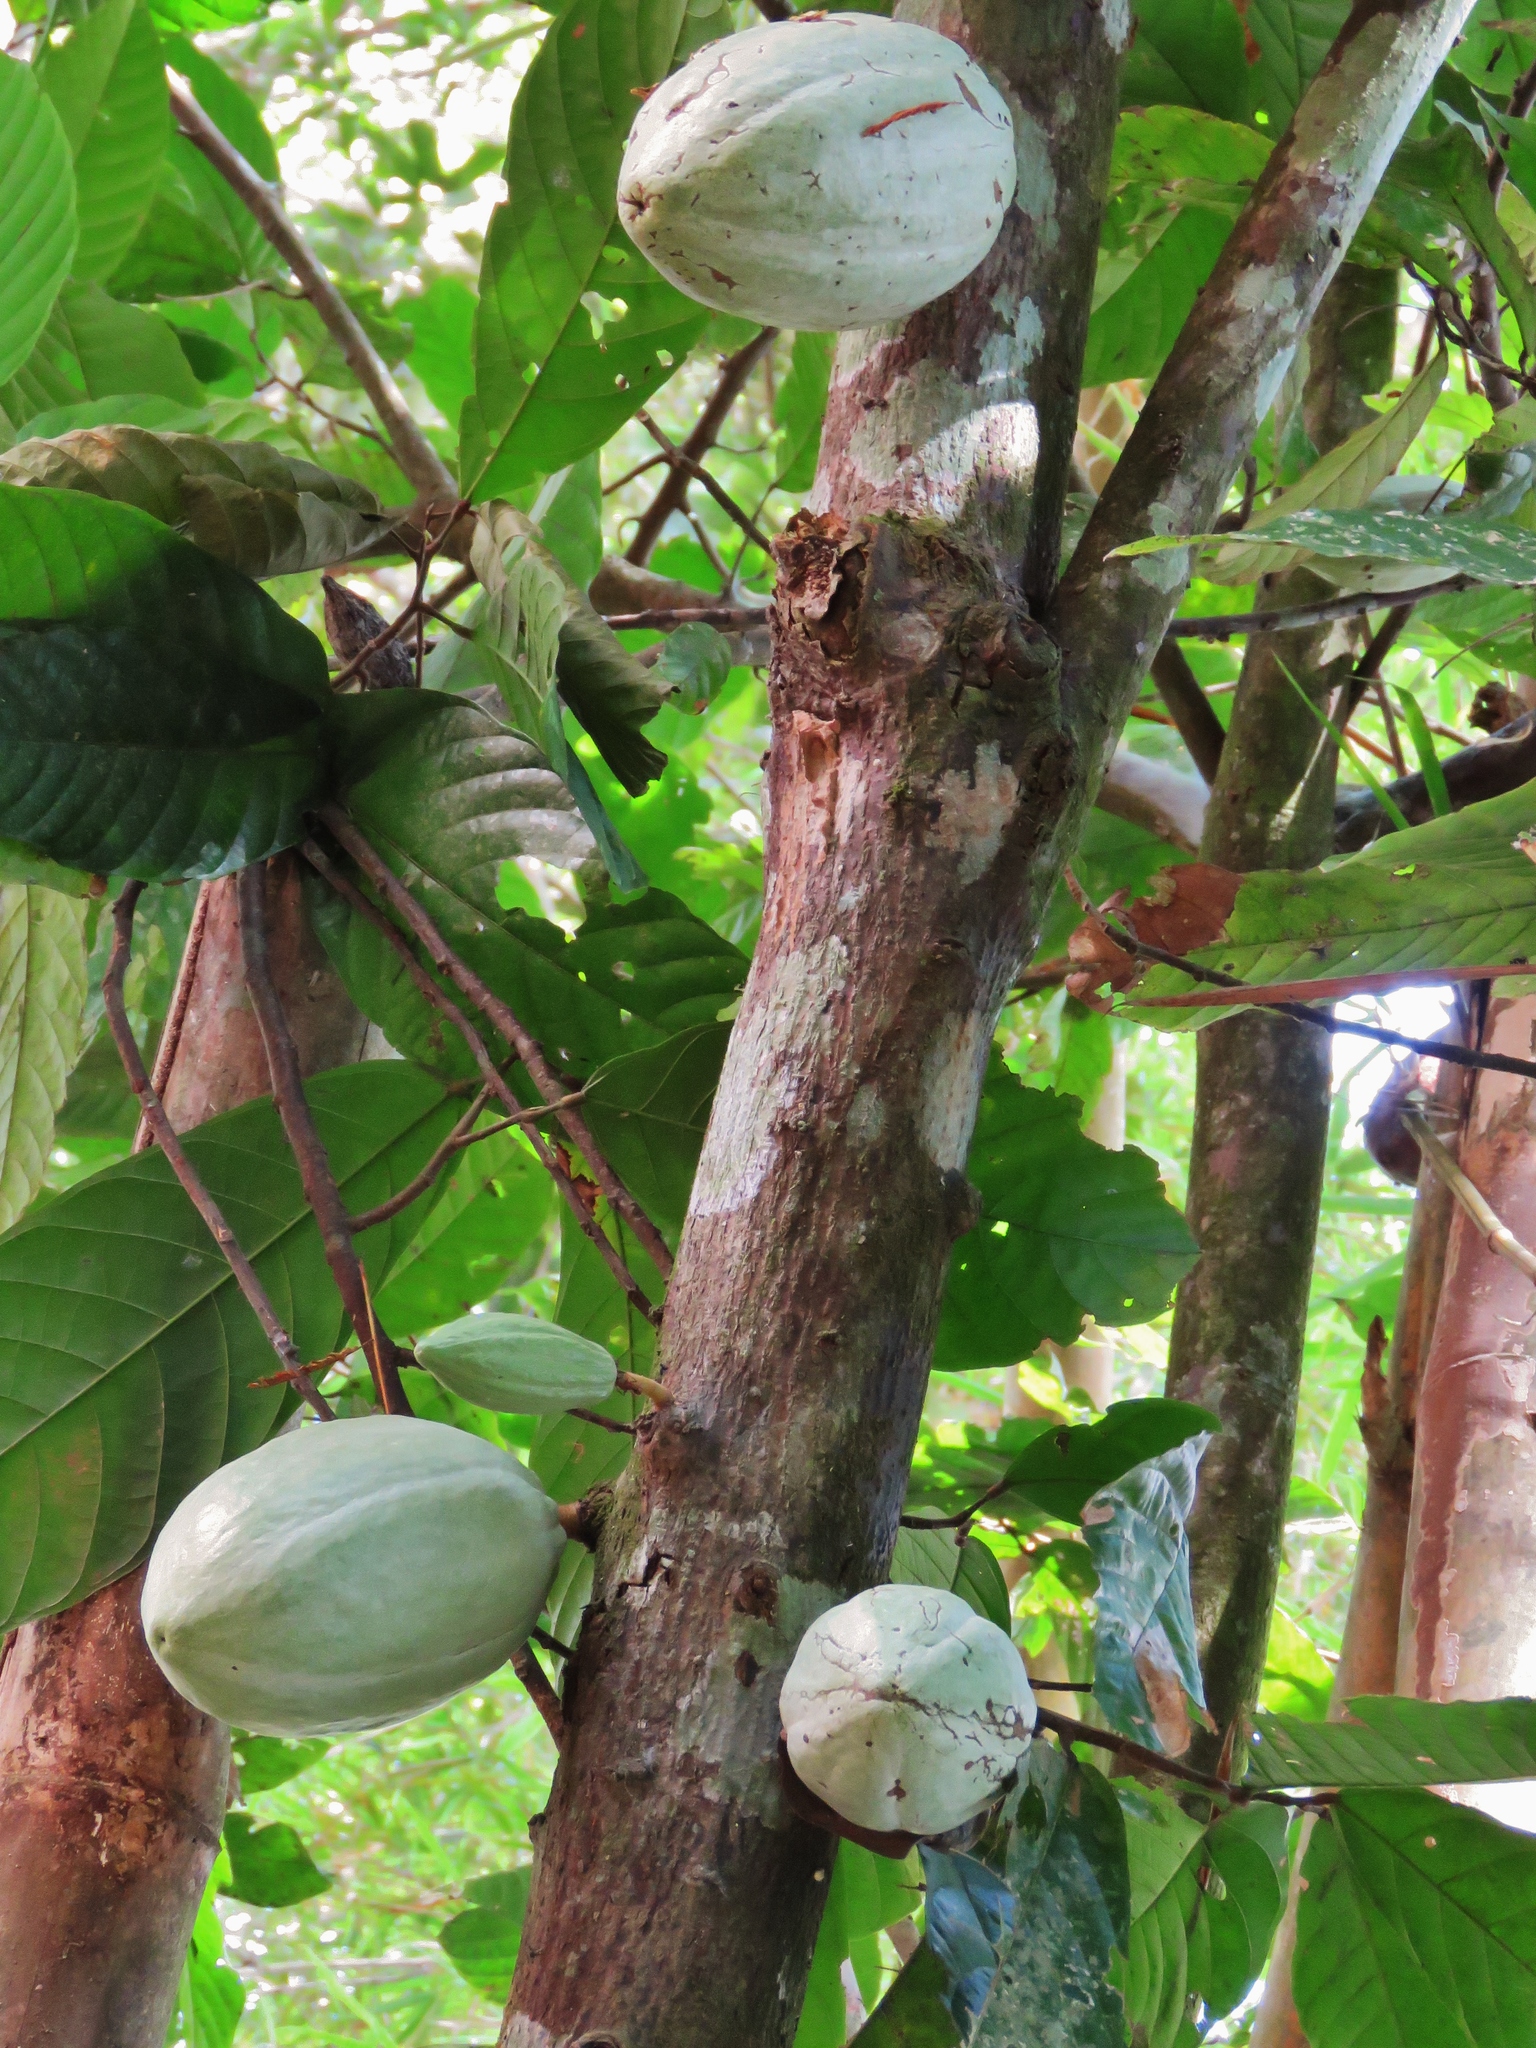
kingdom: Plantae
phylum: Tracheophyta
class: Magnoliopsida
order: Malvales
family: Malvaceae
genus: Theobroma
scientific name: Theobroma cacao
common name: Cocoa
